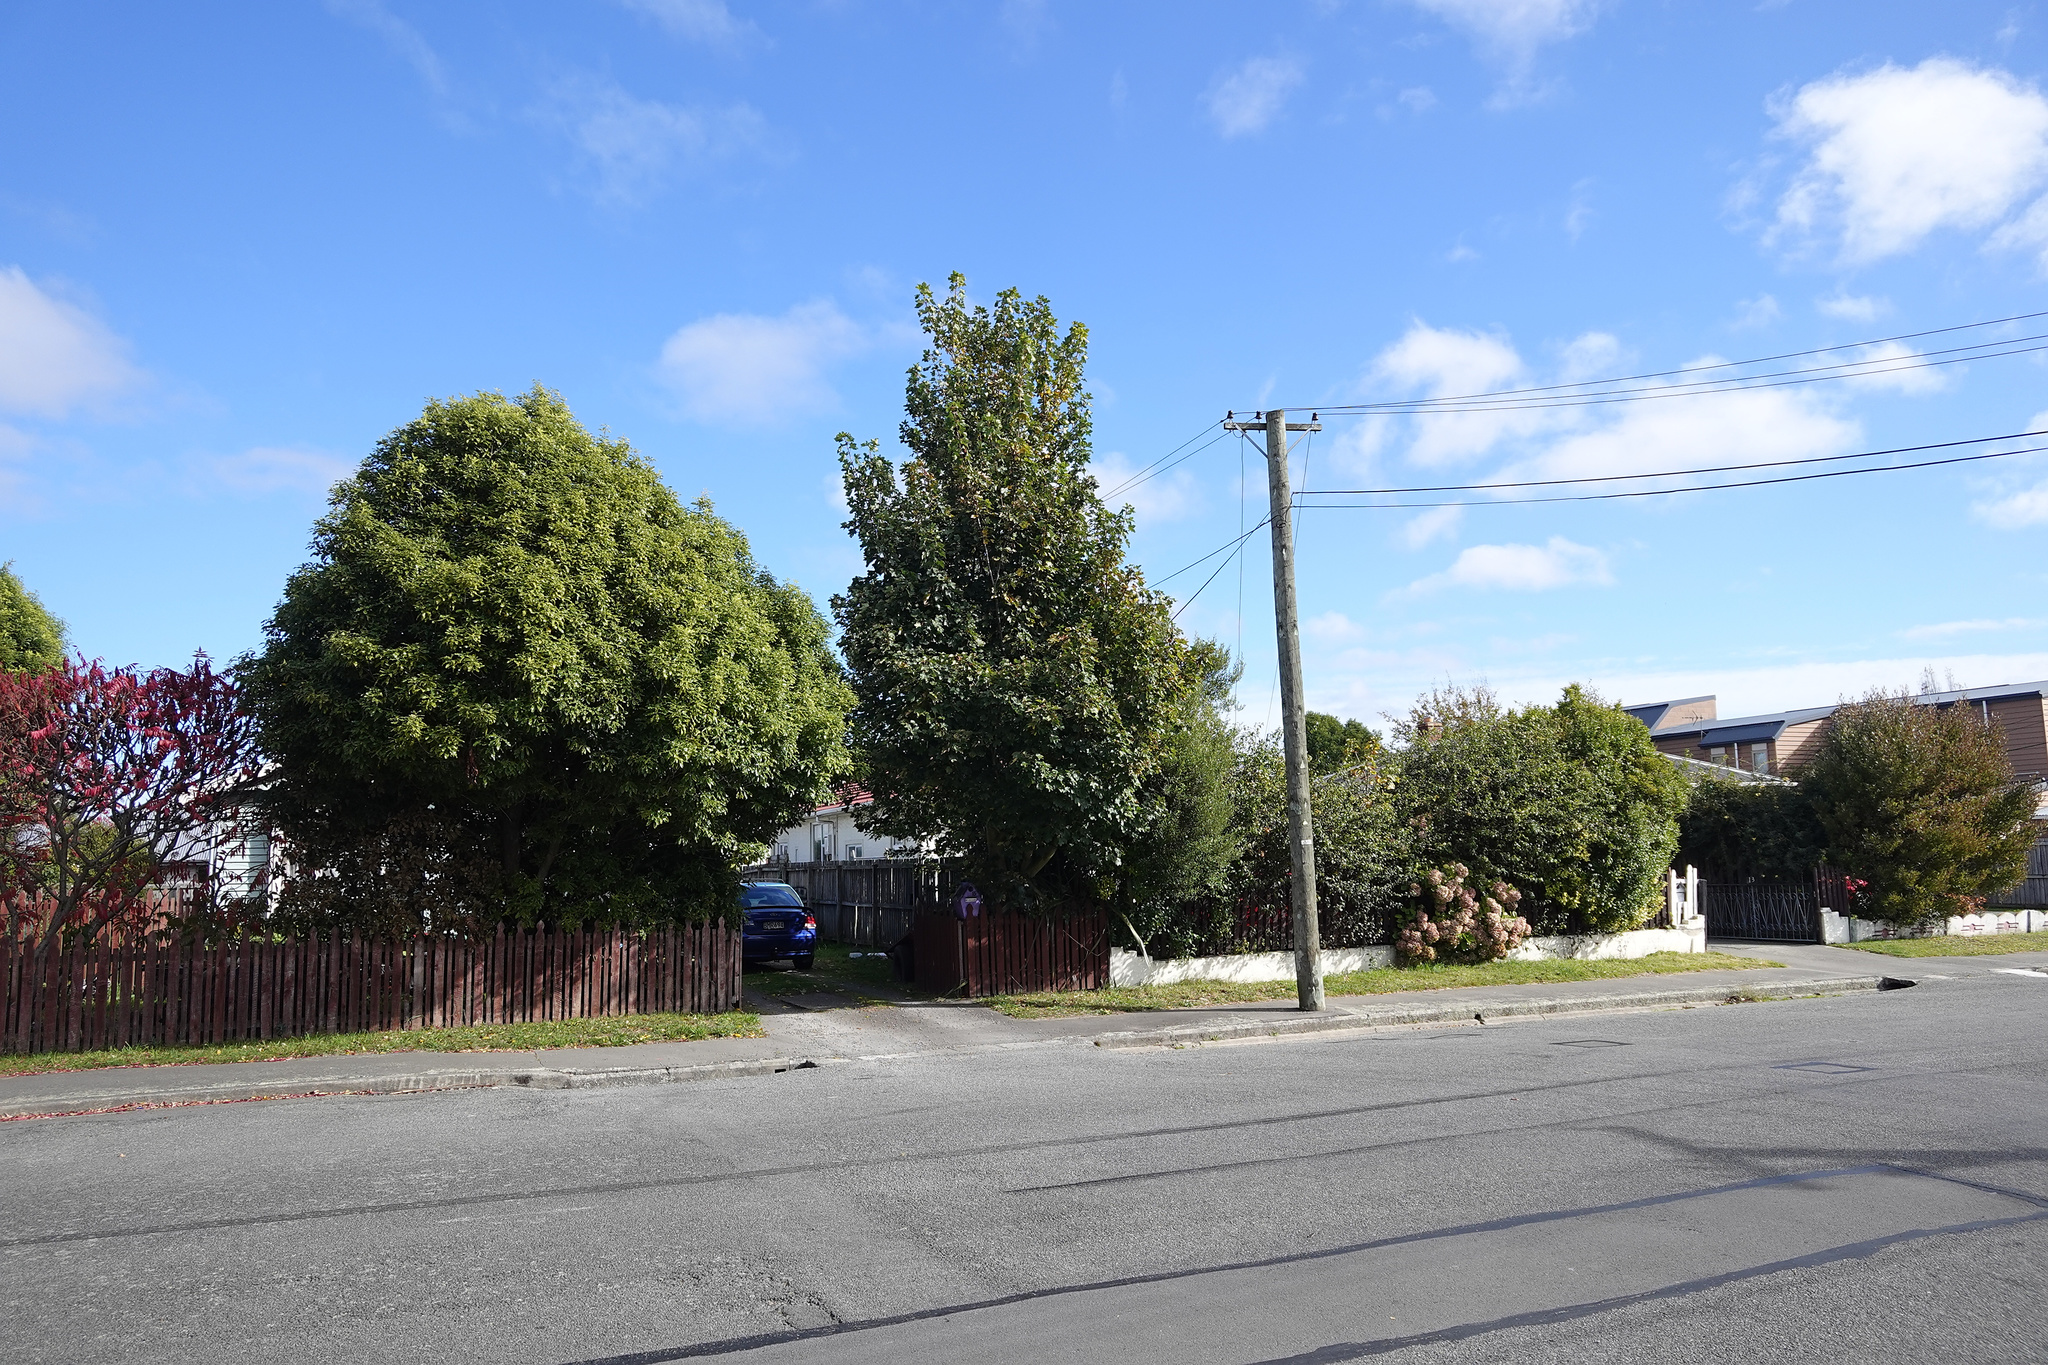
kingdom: Plantae
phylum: Tracheophyta
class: Magnoliopsida
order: Sapindales
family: Sapindaceae
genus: Acer
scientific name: Acer pseudoplatanus
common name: Sycamore
